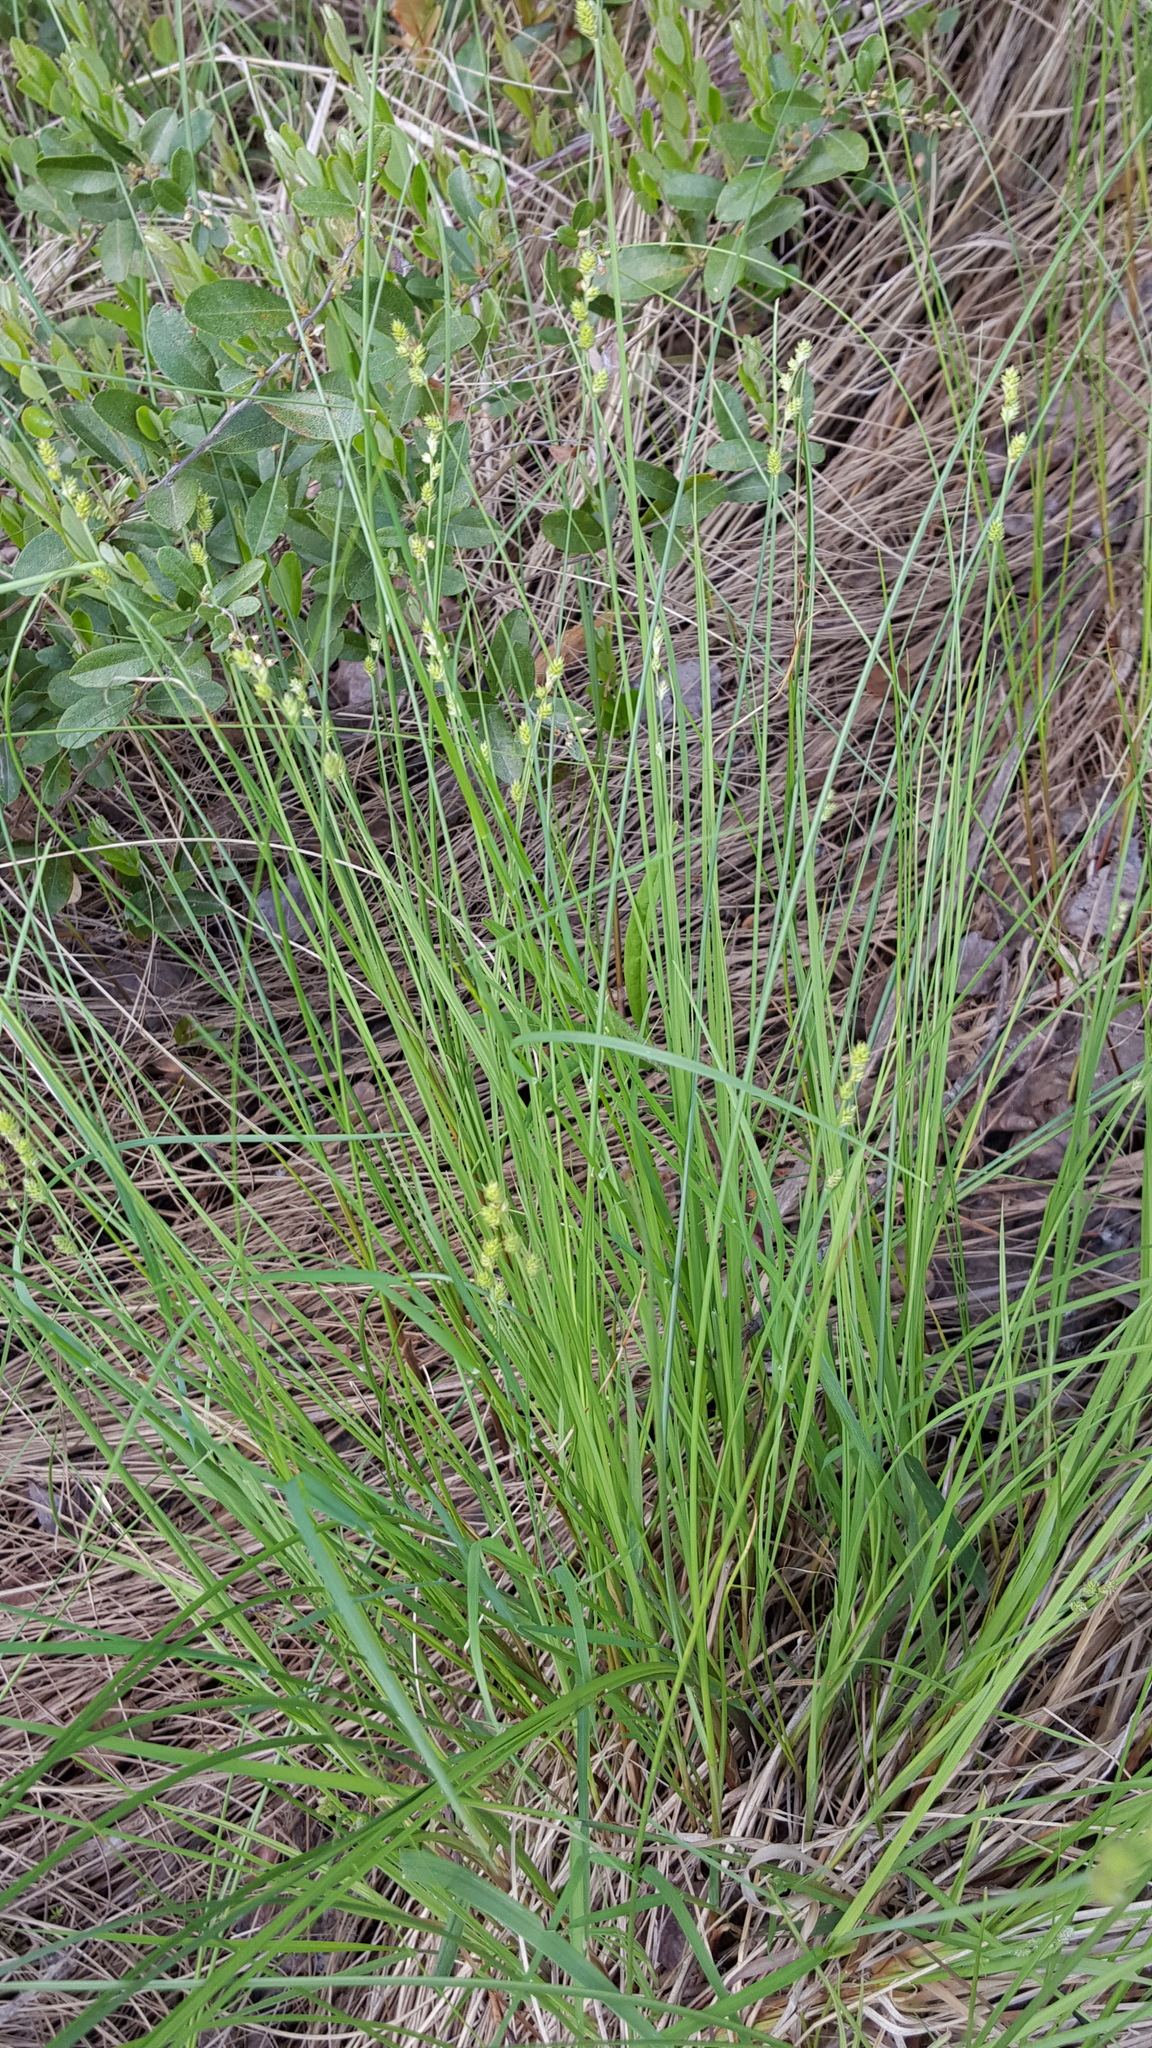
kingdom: Plantae
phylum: Tracheophyta
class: Liliopsida
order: Poales
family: Cyperaceae
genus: Carex
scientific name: Carex canescens
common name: White sedge
